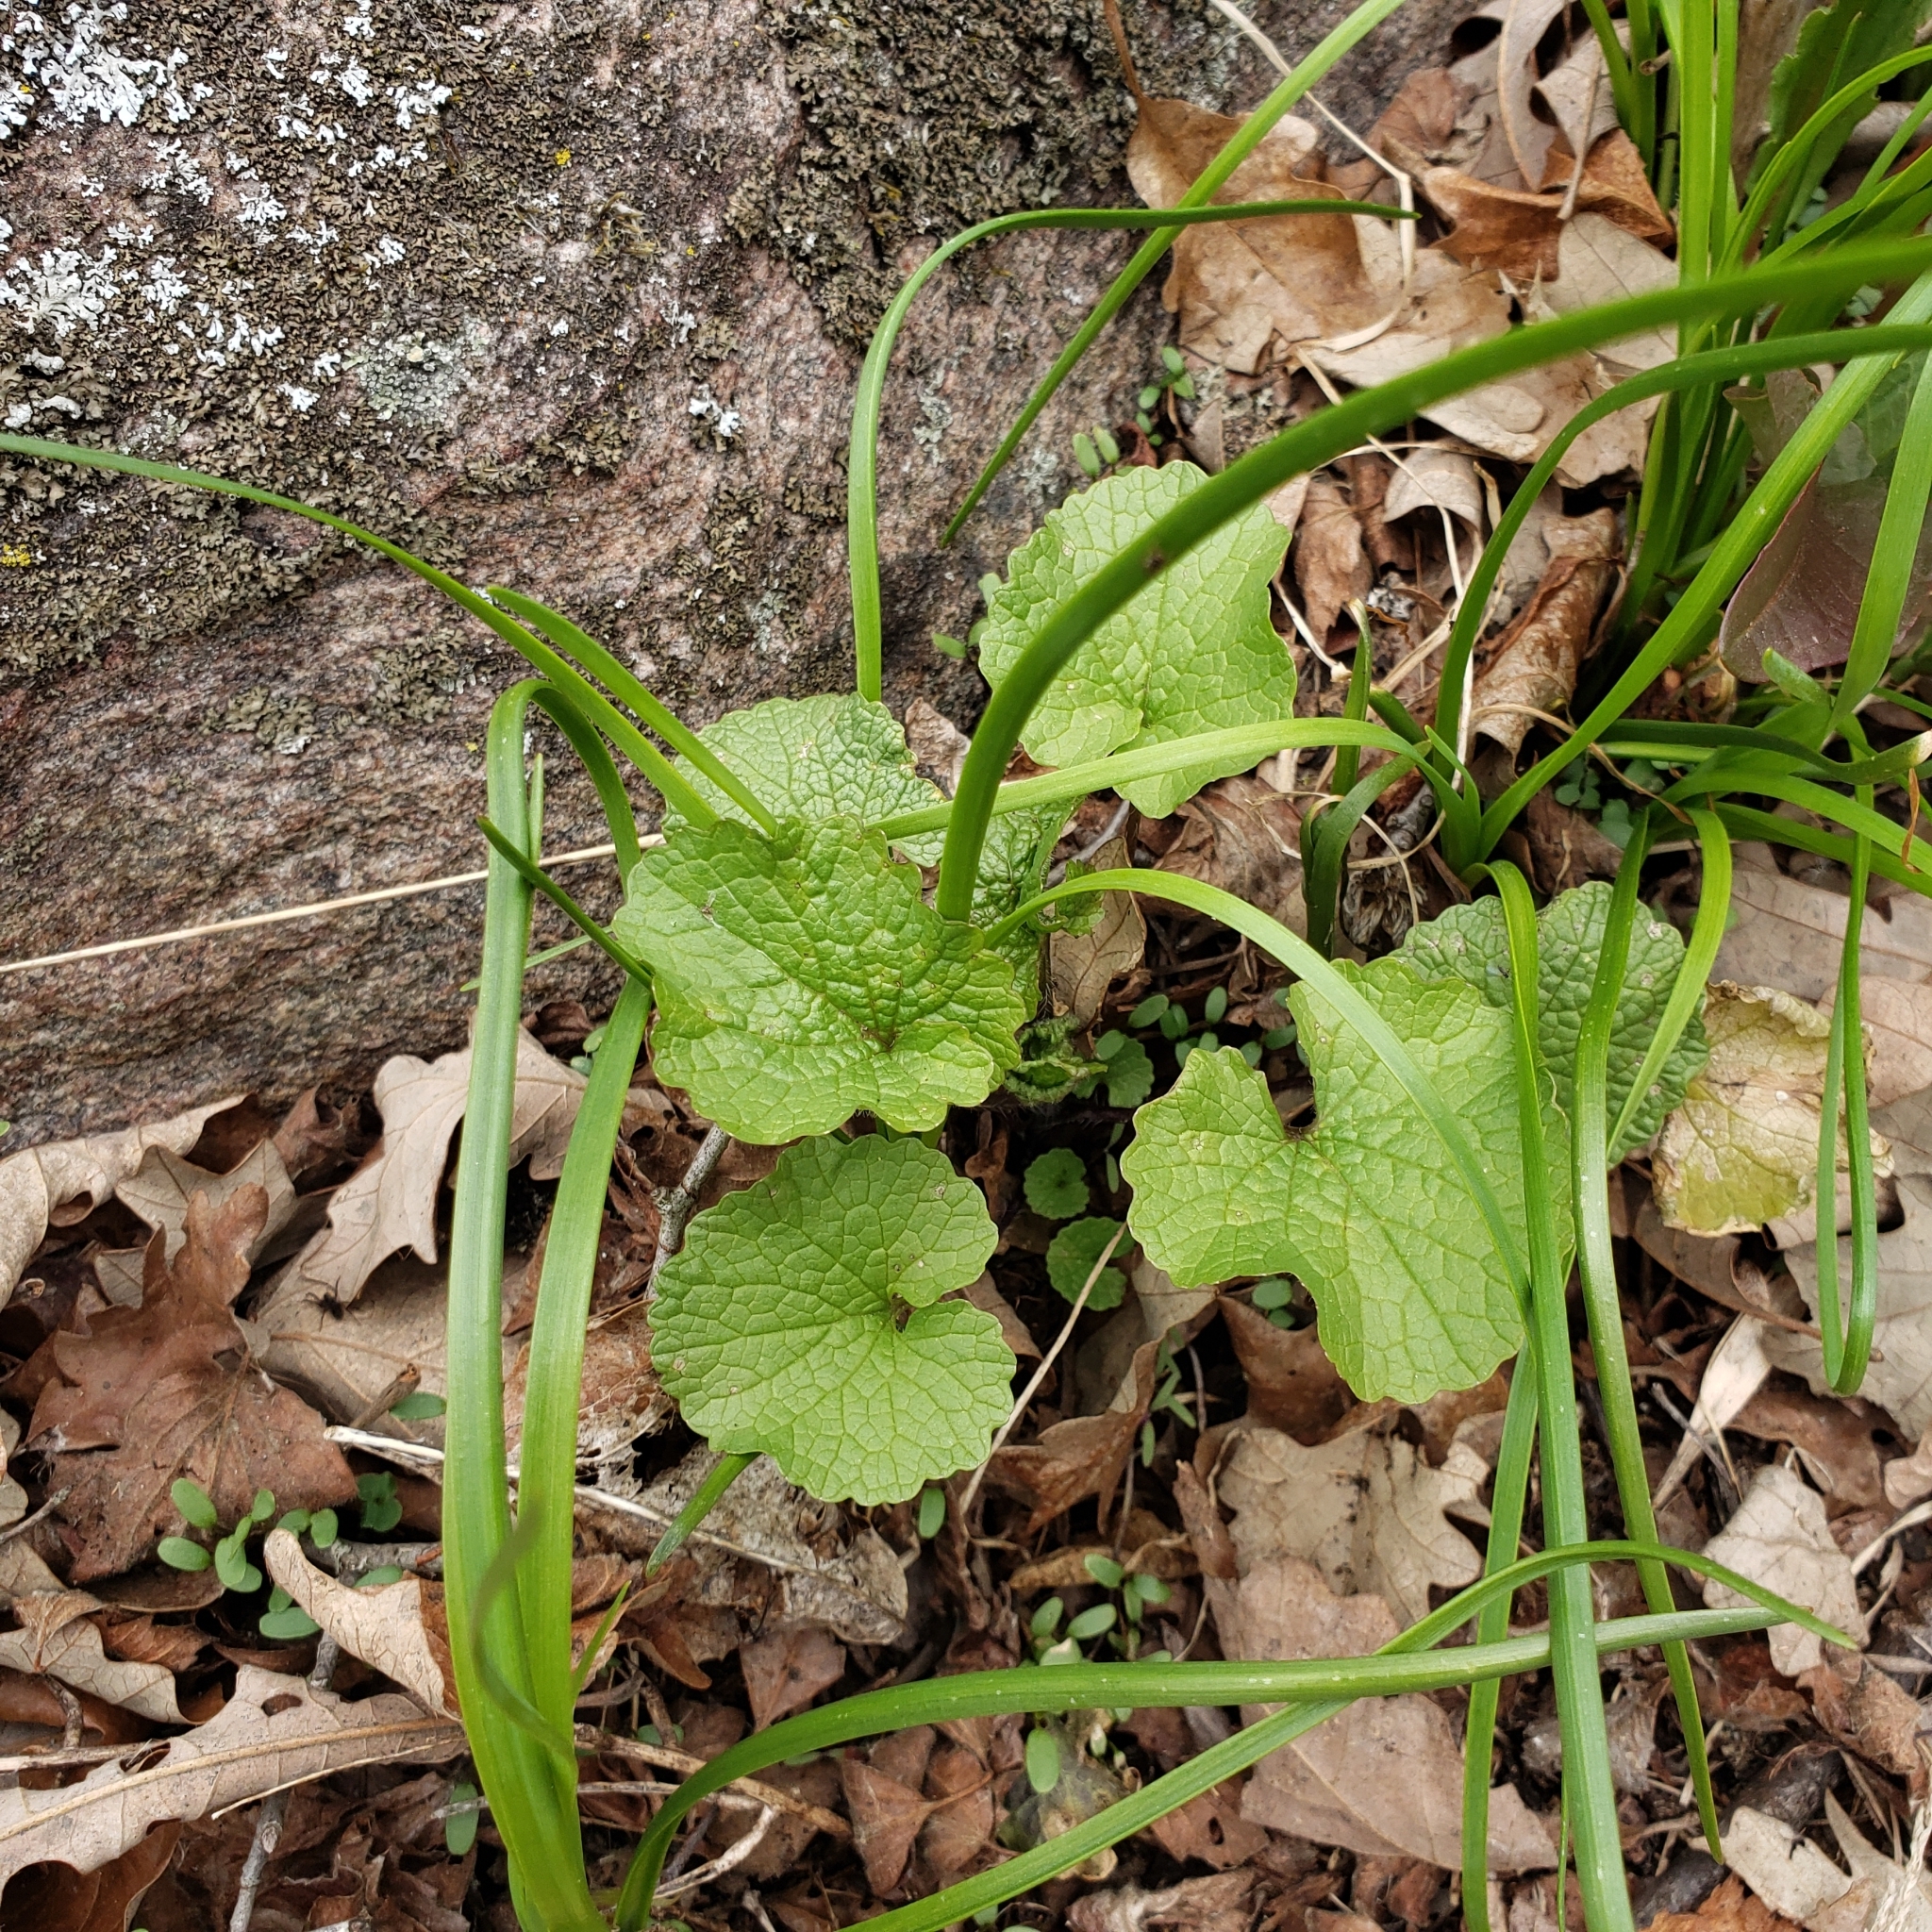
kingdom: Plantae
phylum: Tracheophyta
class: Magnoliopsida
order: Brassicales
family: Brassicaceae
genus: Alliaria
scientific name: Alliaria petiolata
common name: Garlic mustard
